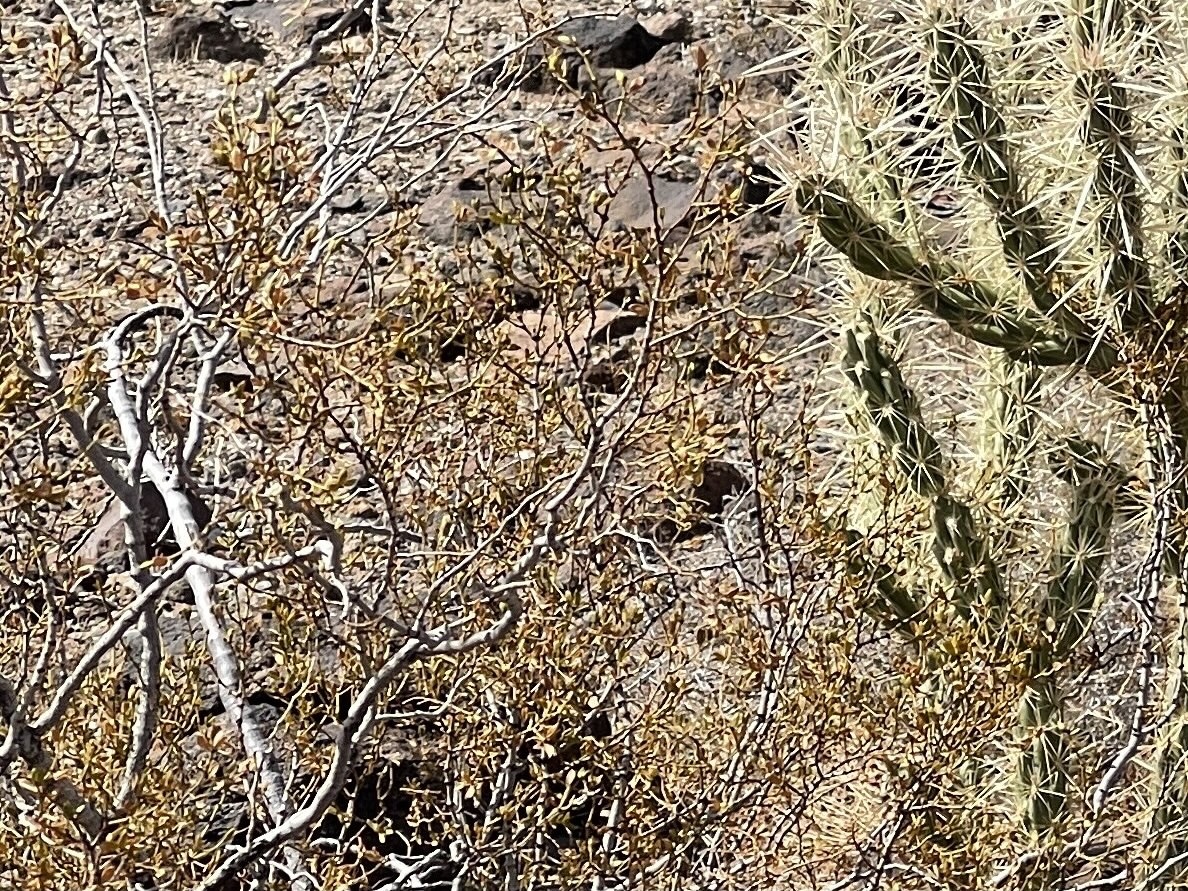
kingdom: Plantae
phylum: Tracheophyta
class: Magnoliopsida
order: Zygophyllales
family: Zygophyllaceae
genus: Larrea
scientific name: Larrea tridentata
